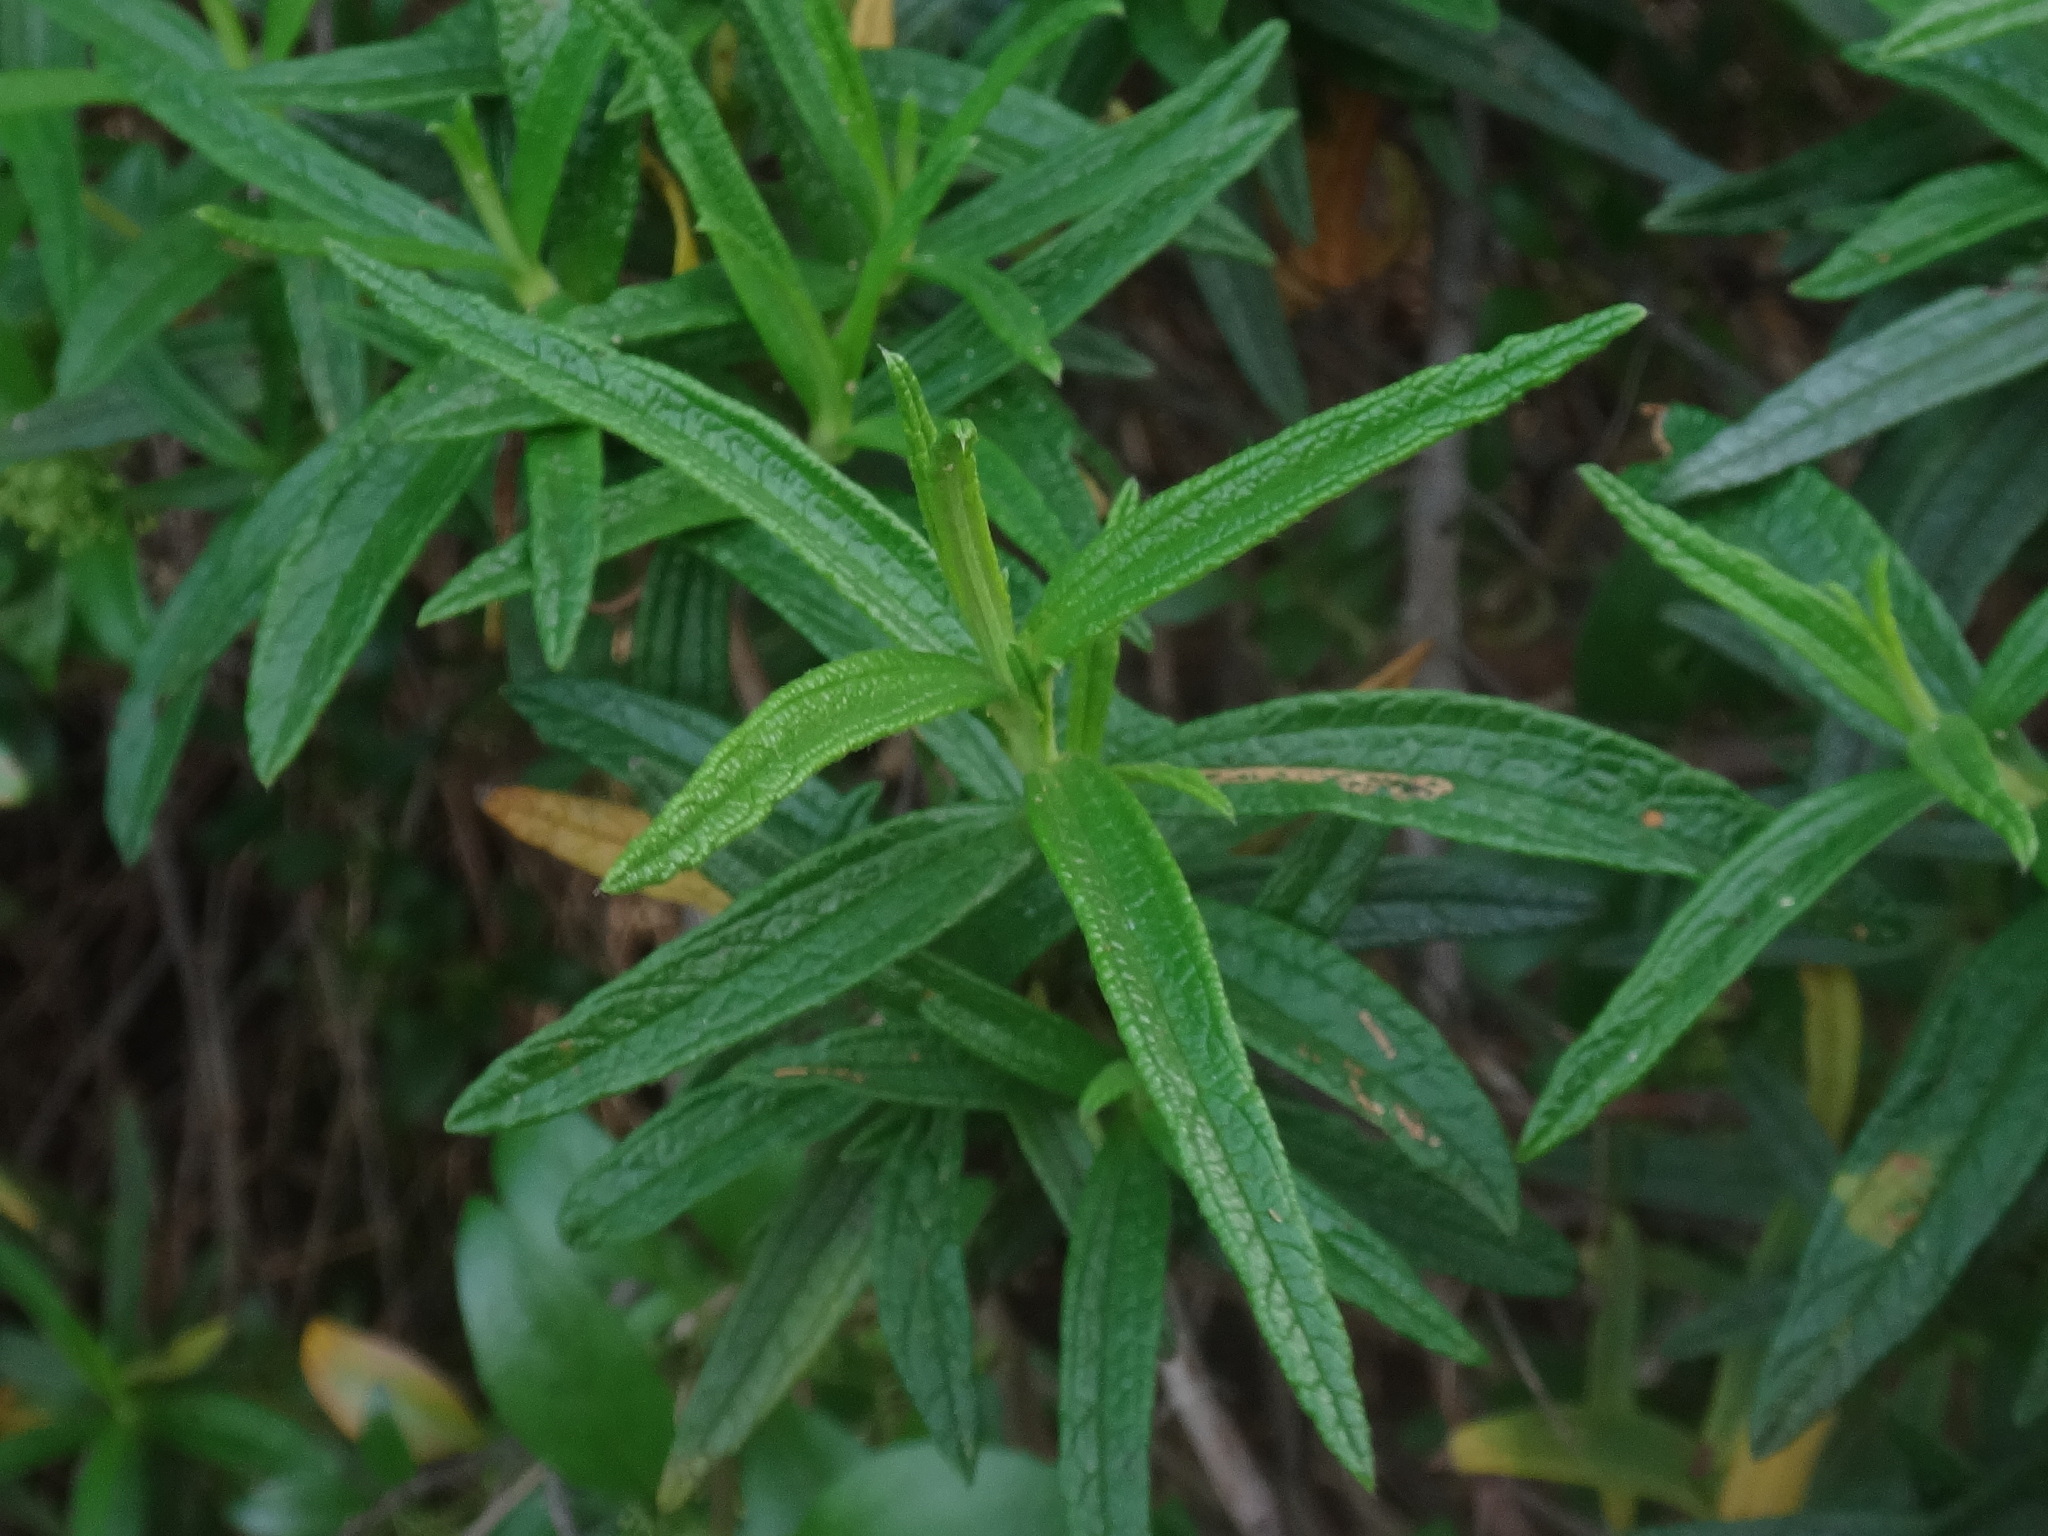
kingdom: Plantae
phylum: Tracheophyta
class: Magnoliopsida
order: Malvales
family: Cistaceae
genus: Cistus
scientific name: Cistus monspeliensis
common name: Montpelier cistus
